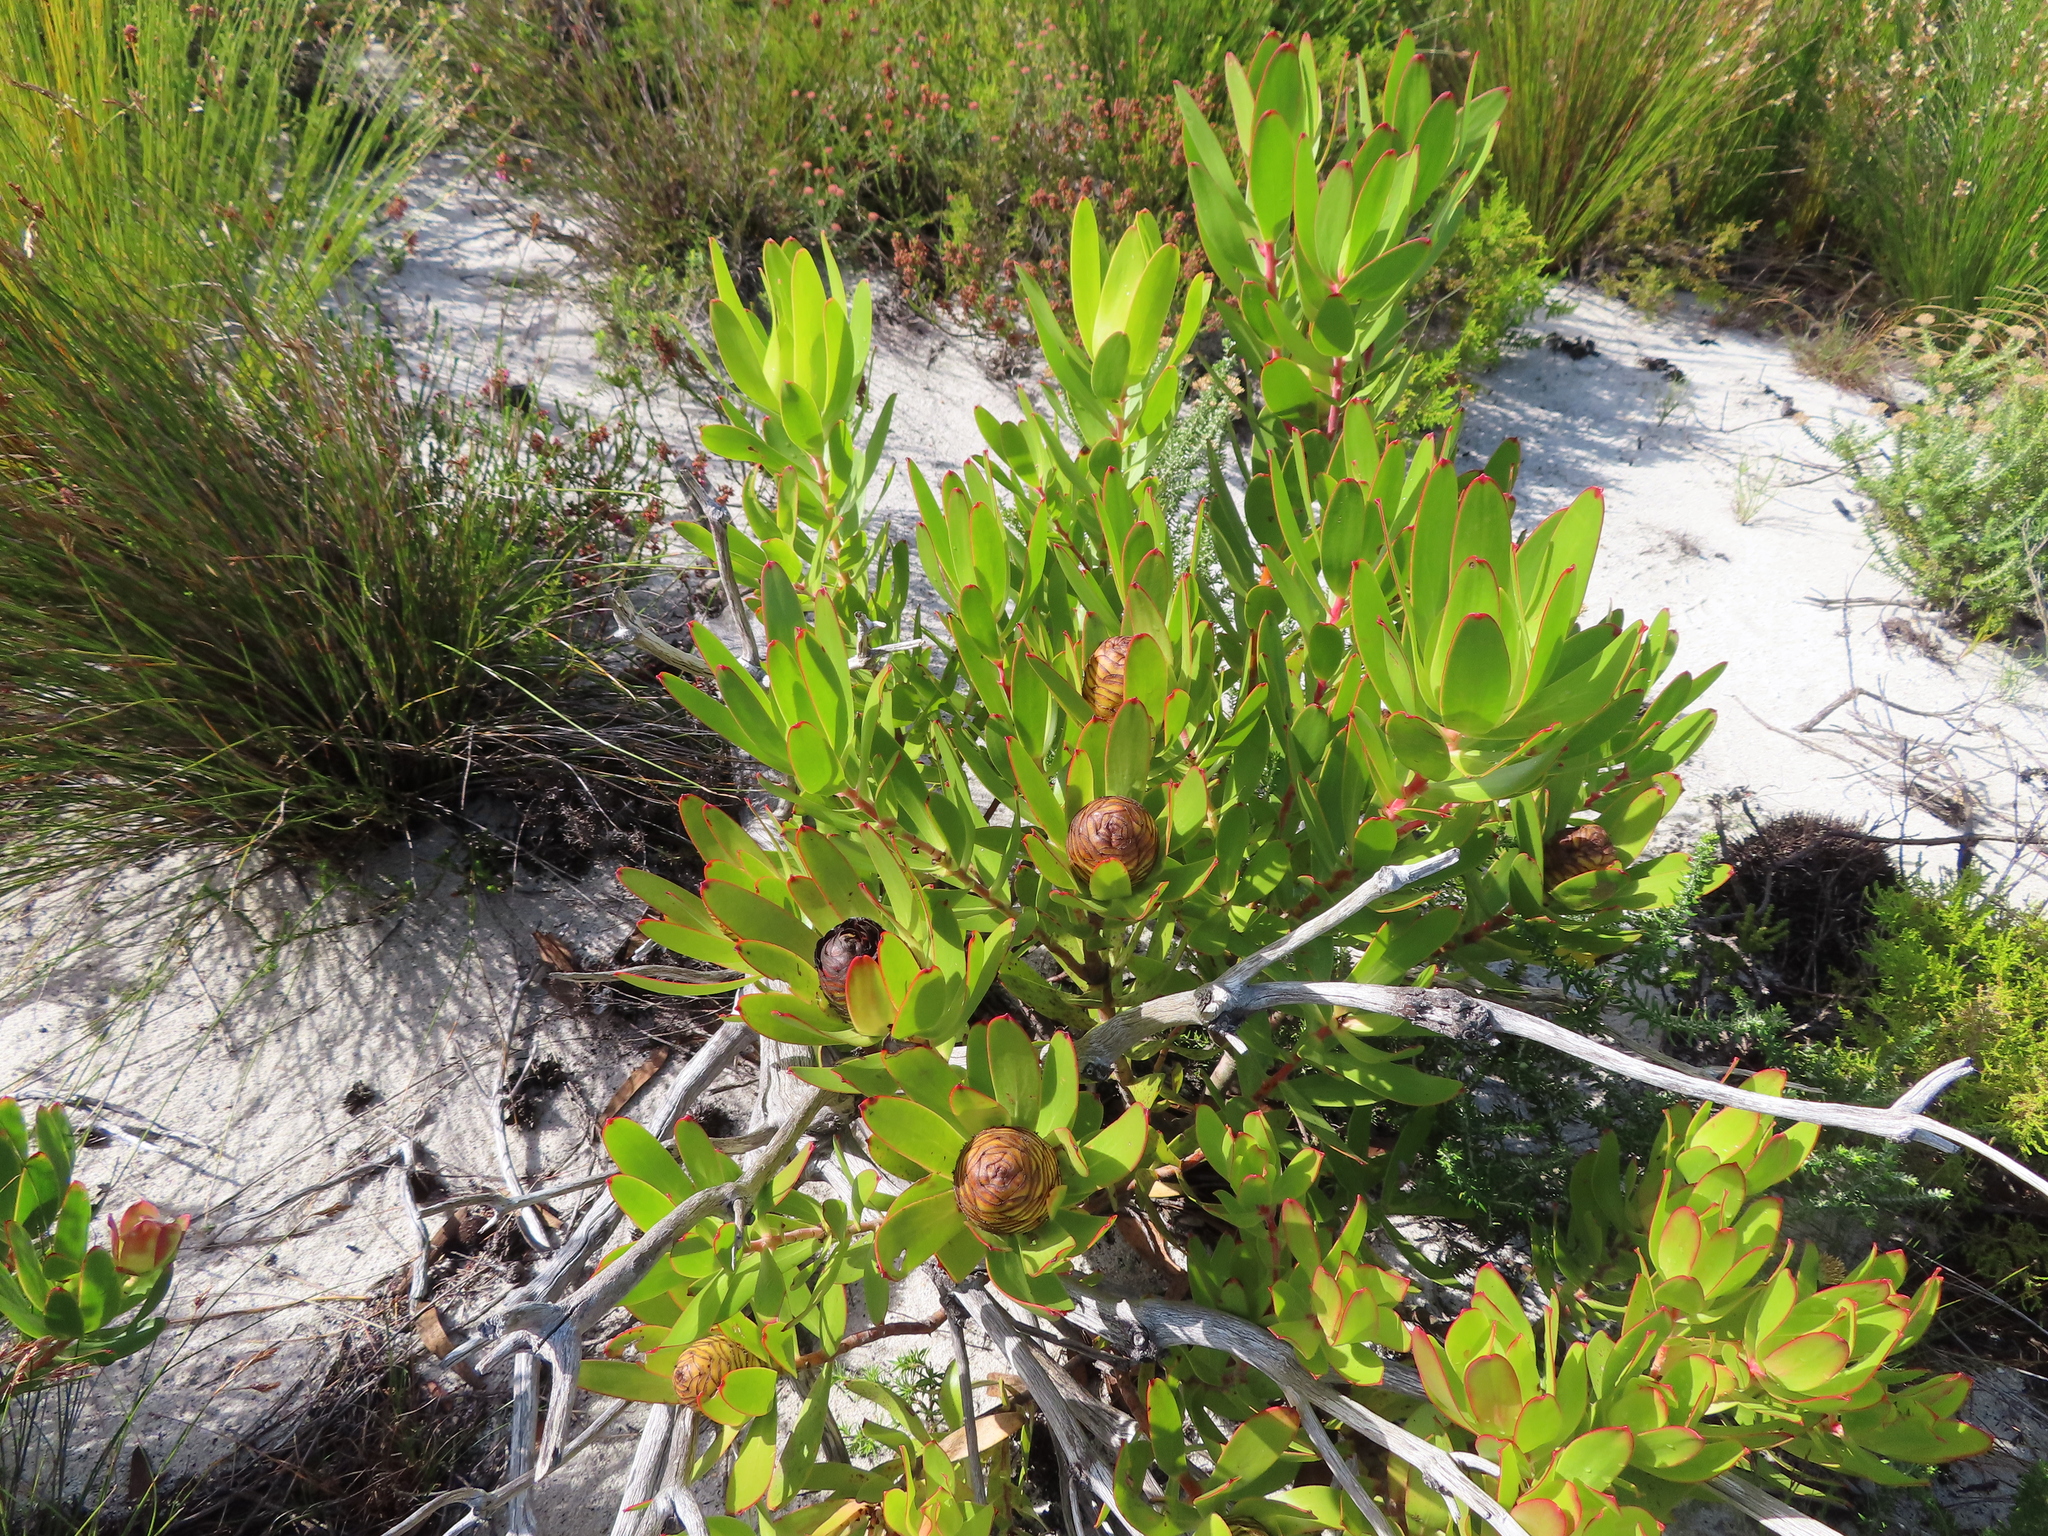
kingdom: Plantae
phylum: Tracheophyta
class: Magnoliopsida
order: Proteales
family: Proteaceae
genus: Leucadendron
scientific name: Leucadendron gandogeri
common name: Broad-leaf conebush
